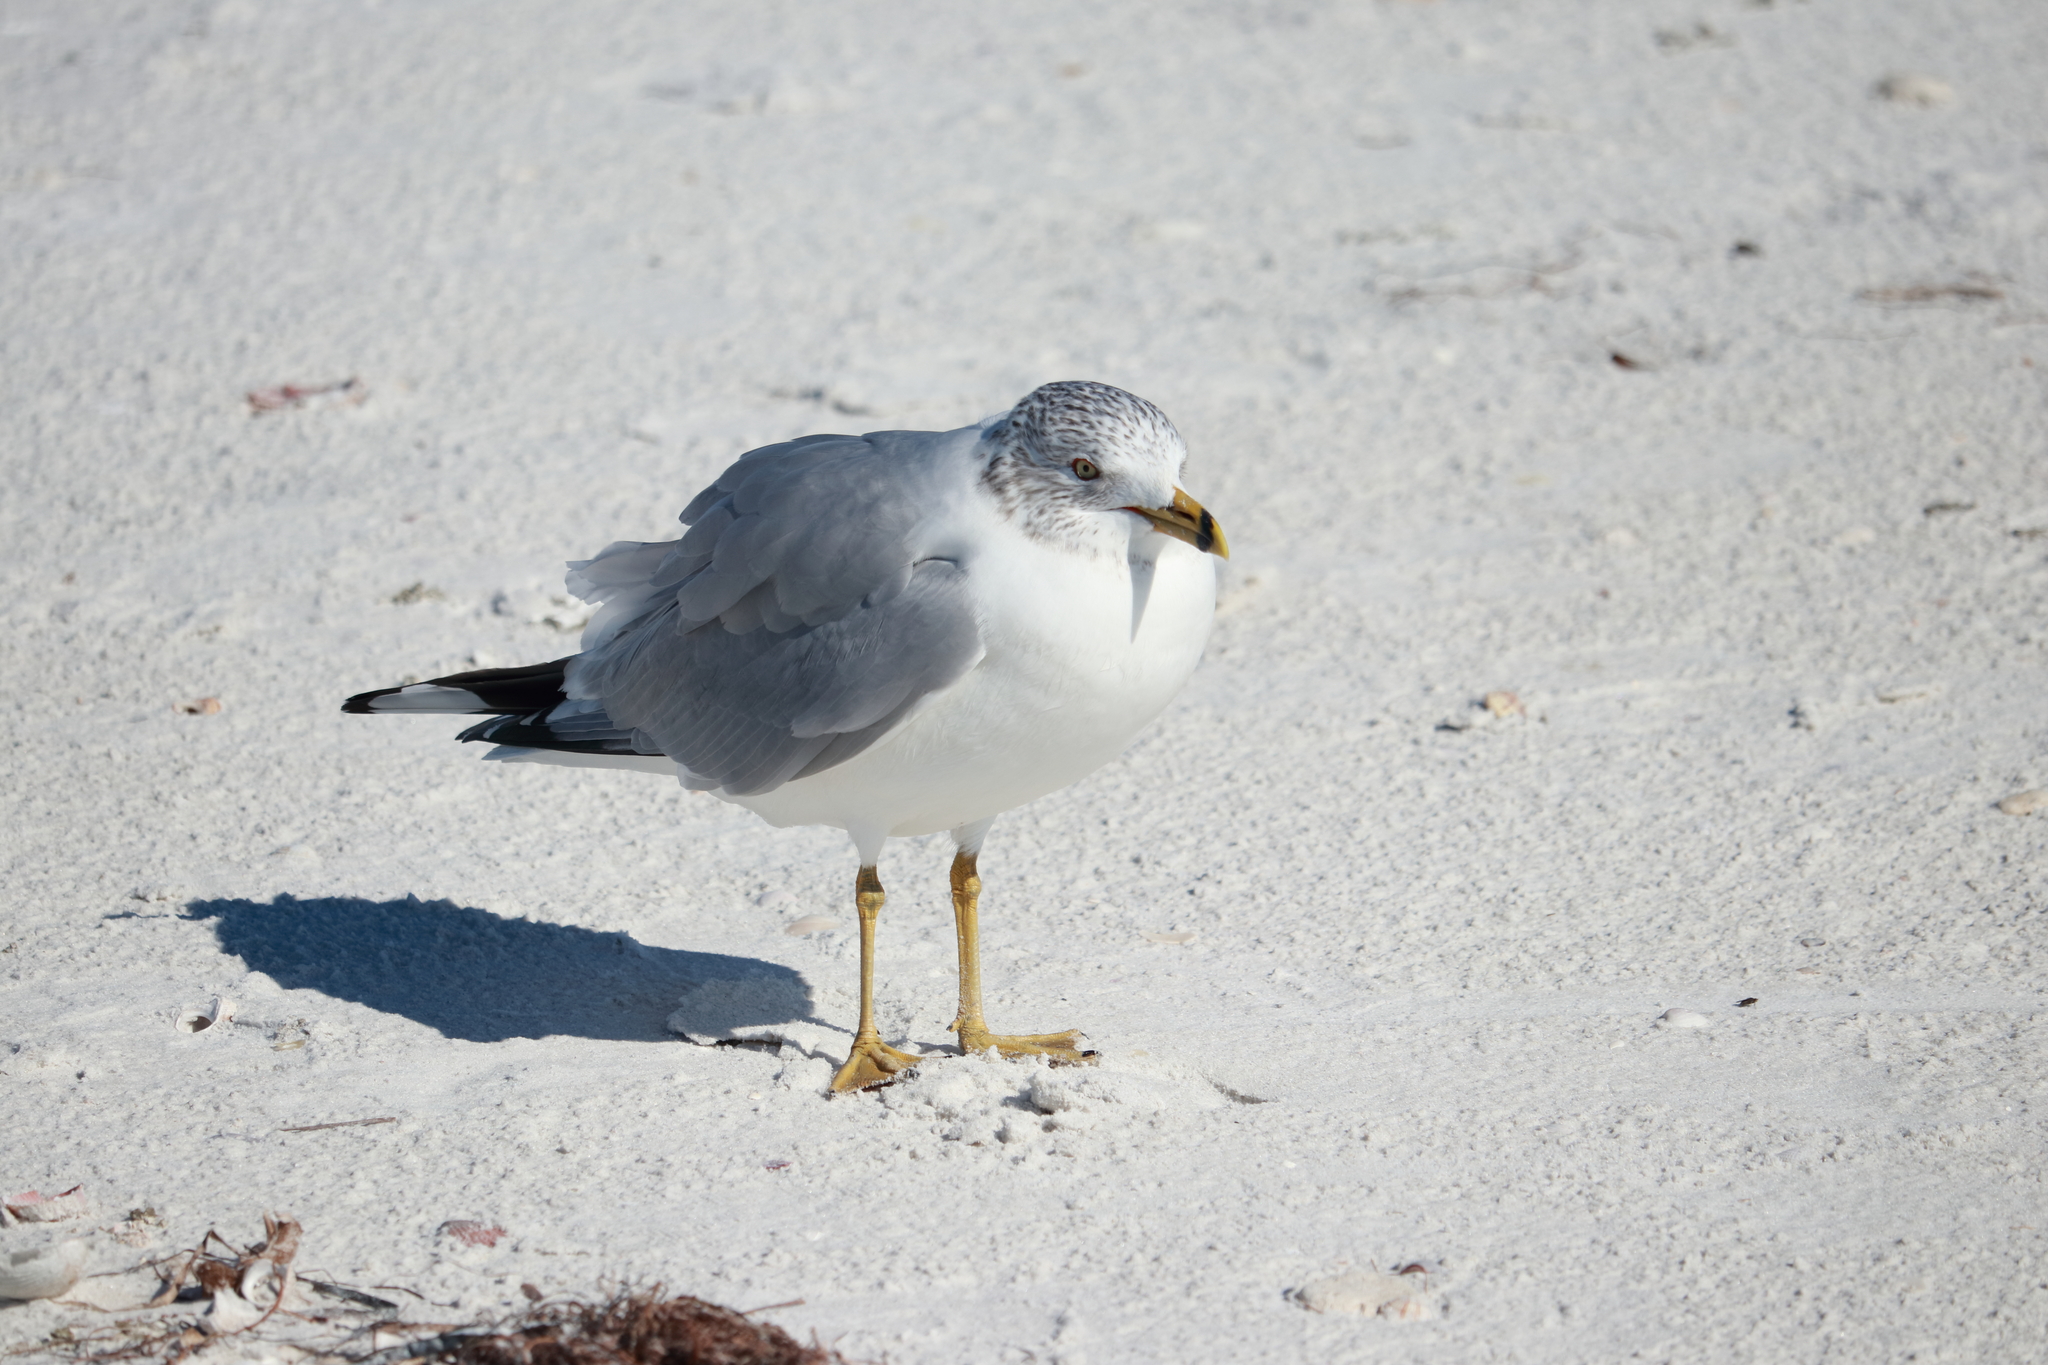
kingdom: Animalia
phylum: Chordata
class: Aves
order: Charadriiformes
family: Laridae
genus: Larus
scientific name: Larus delawarensis
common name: Ring-billed gull
